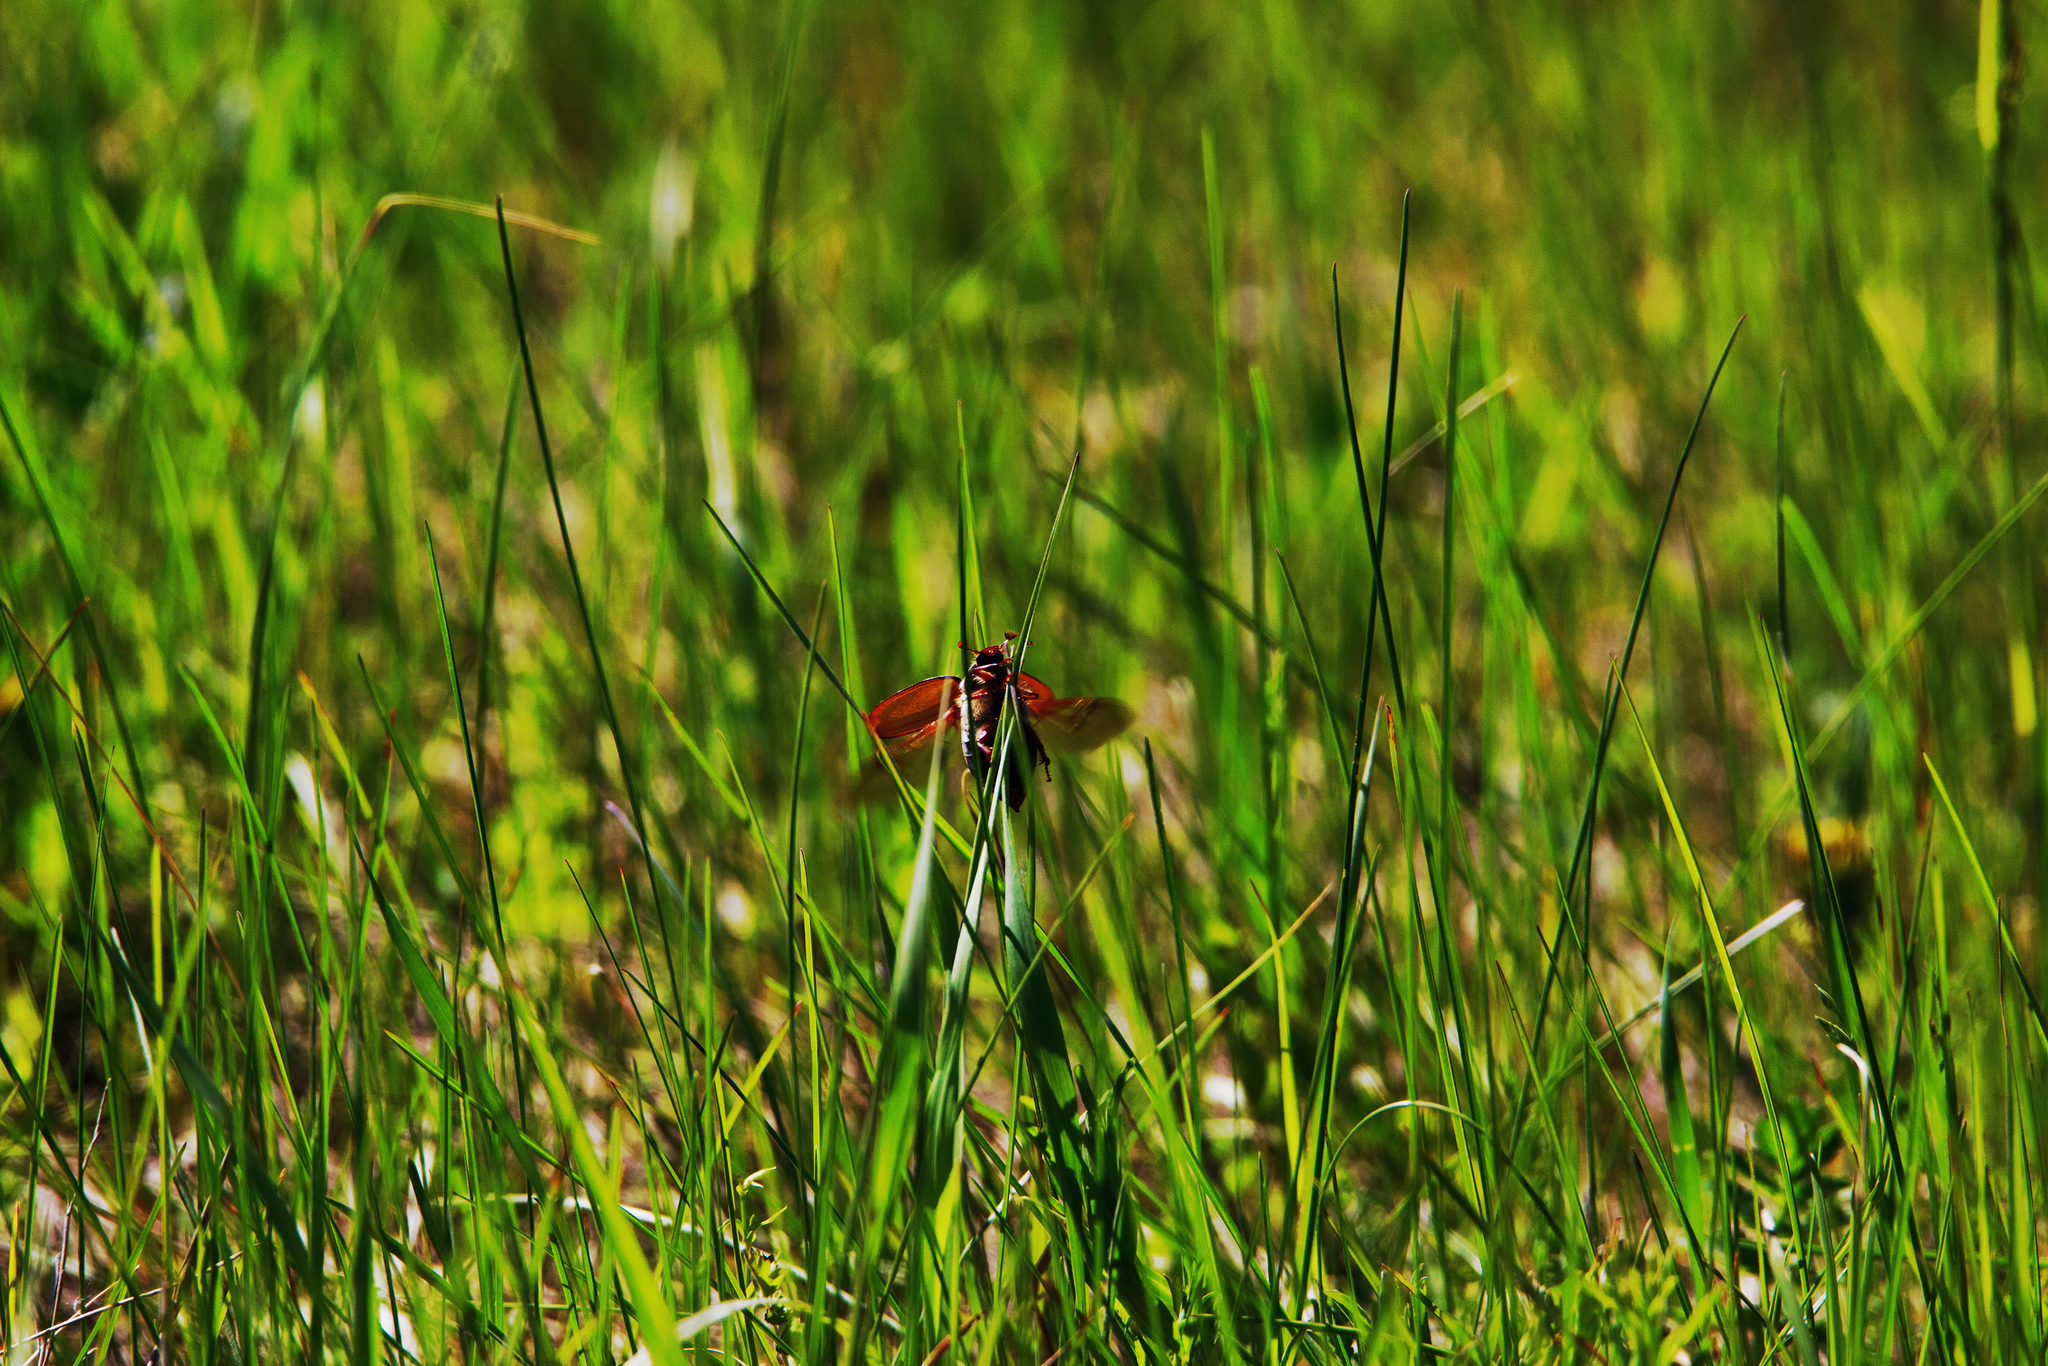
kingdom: Animalia
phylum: Arthropoda
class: Insecta
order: Coleoptera
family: Scarabaeidae
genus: Melolontha
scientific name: Melolontha hippocastani
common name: Chestnut cockchafer
